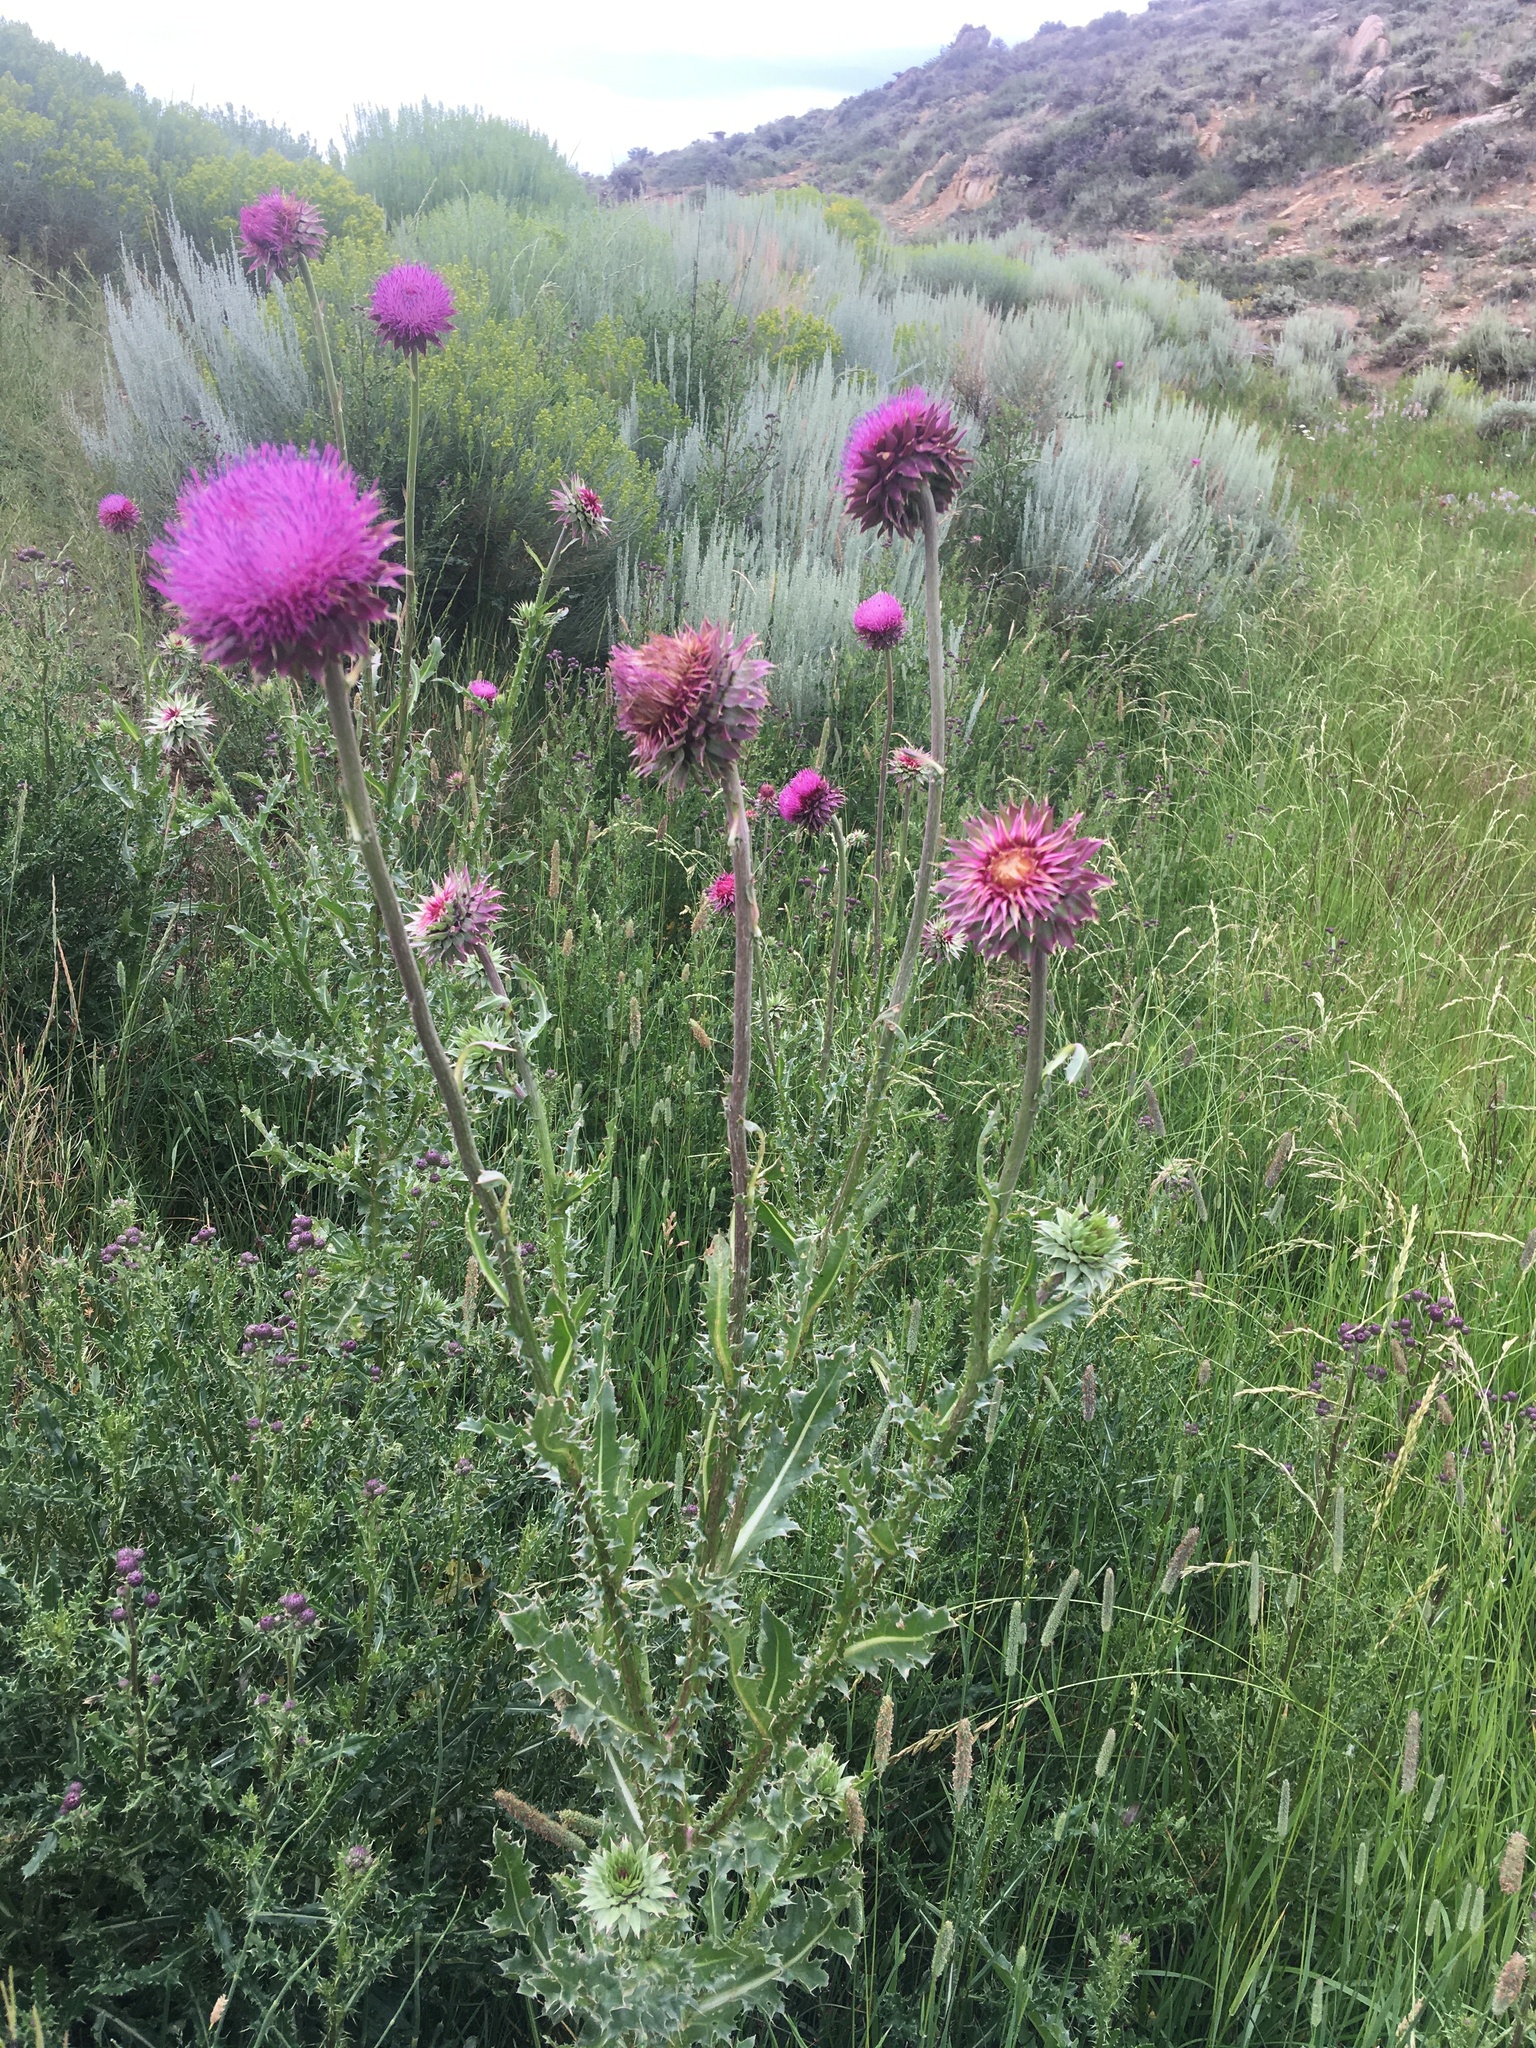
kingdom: Plantae
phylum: Tracheophyta
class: Magnoliopsida
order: Asterales
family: Asteraceae
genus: Carduus
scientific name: Carduus nutans
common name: Musk thistle
